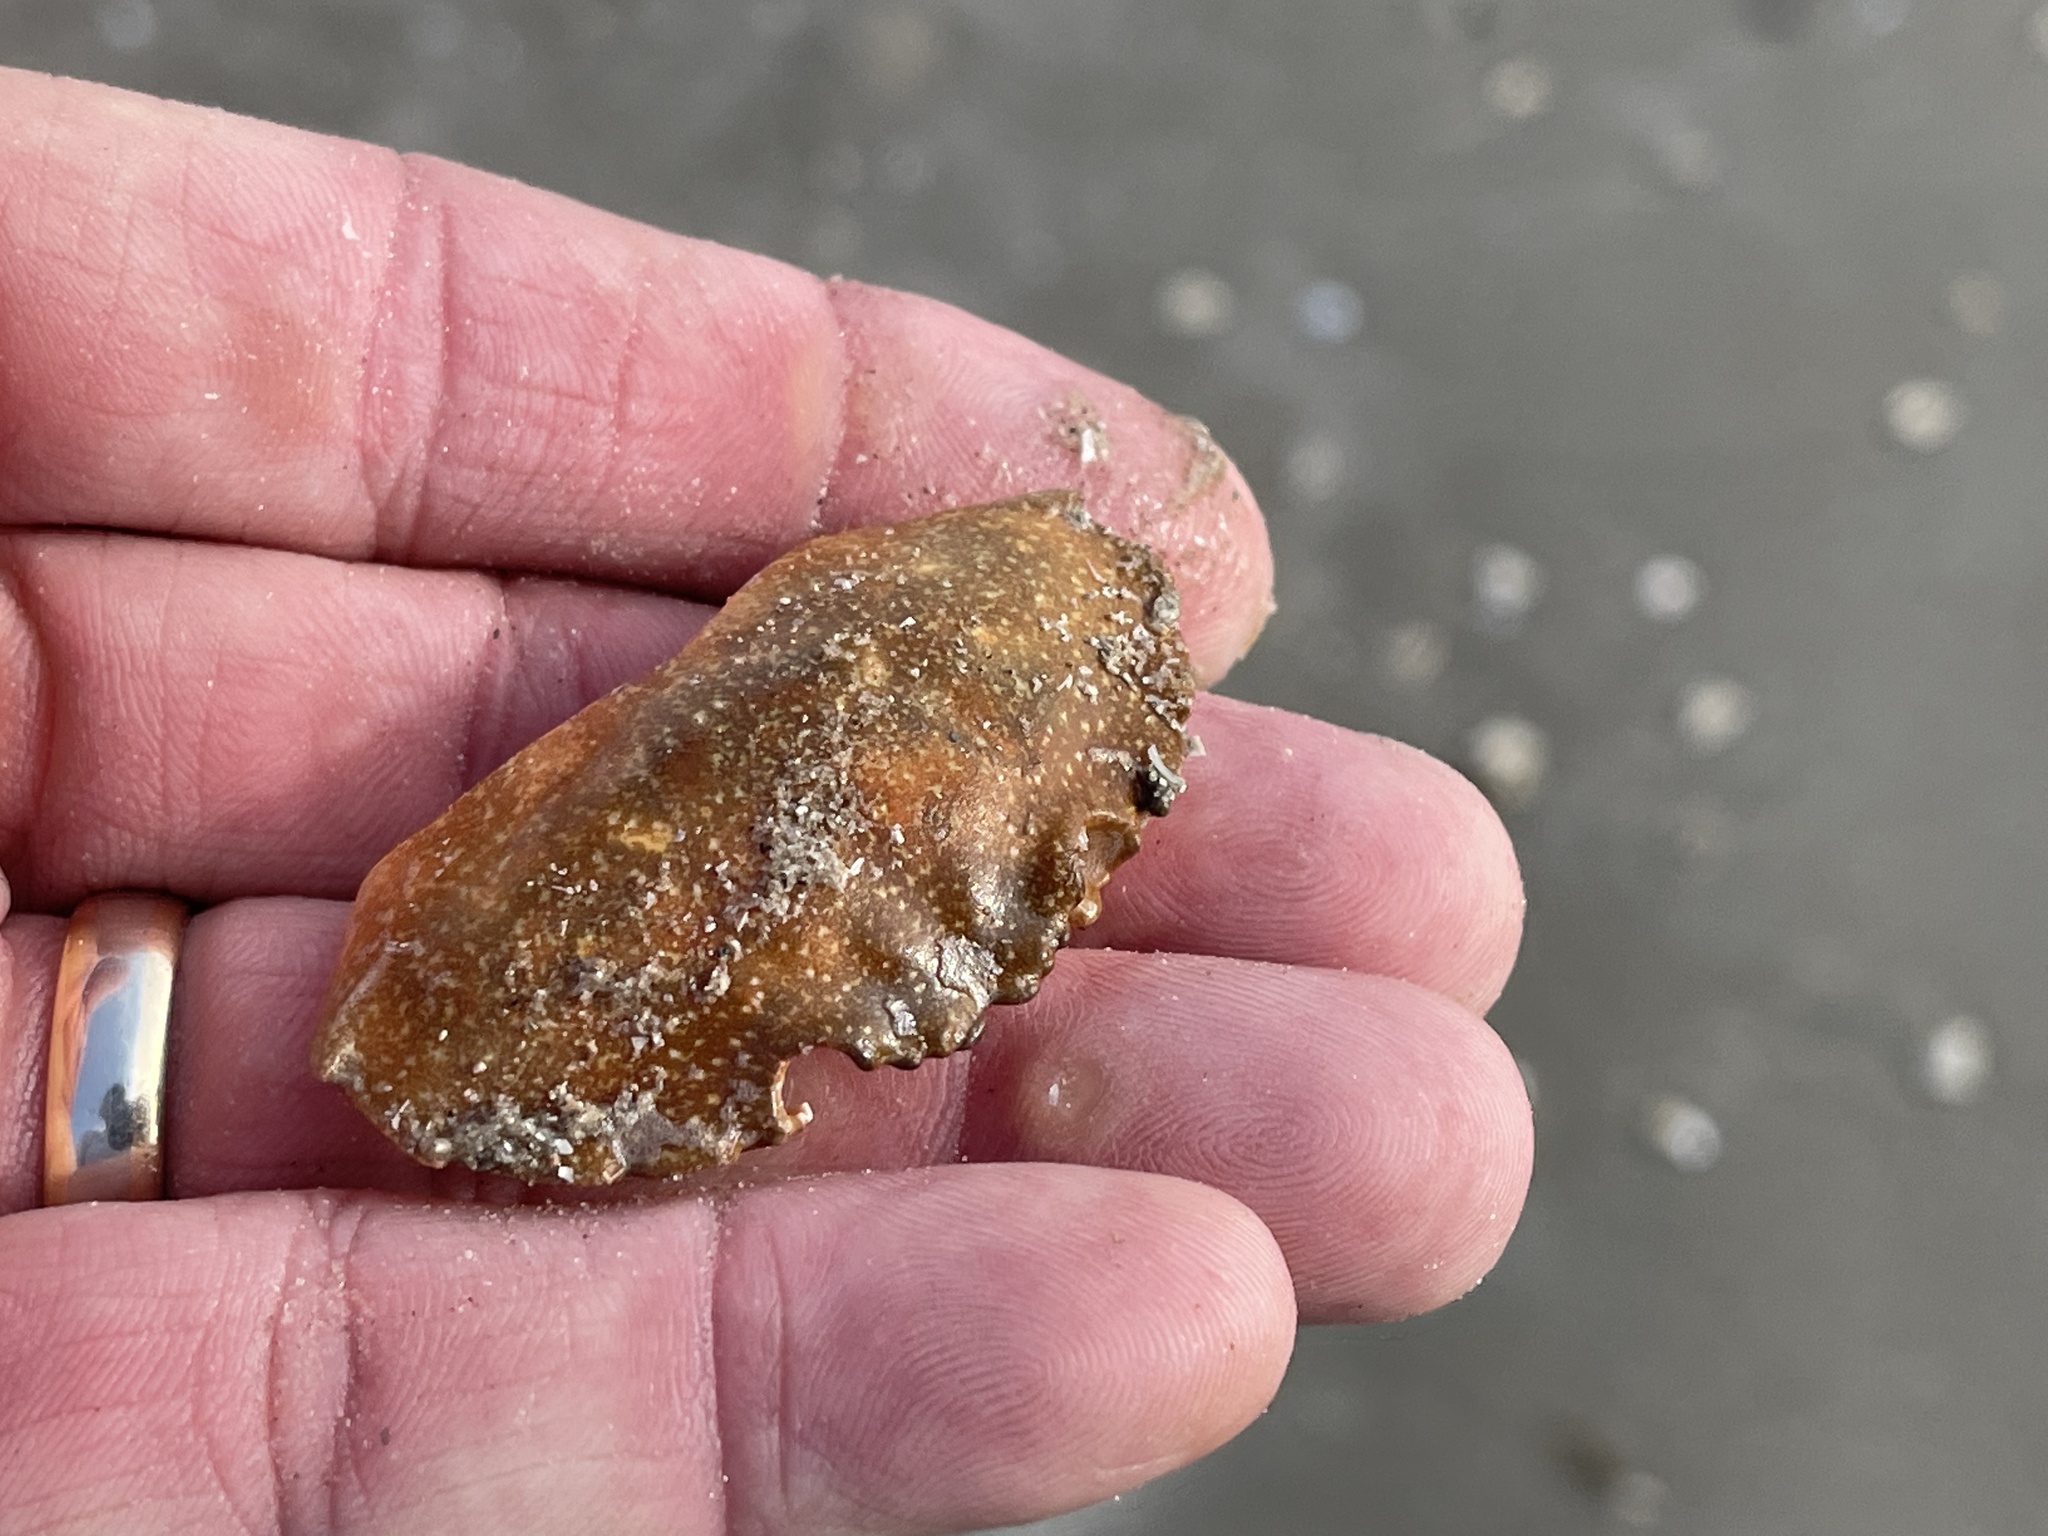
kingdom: Animalia
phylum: Arthropoda
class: Malacostraca
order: Decapoda
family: Menippidae
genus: Menippe
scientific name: Menippe adina
